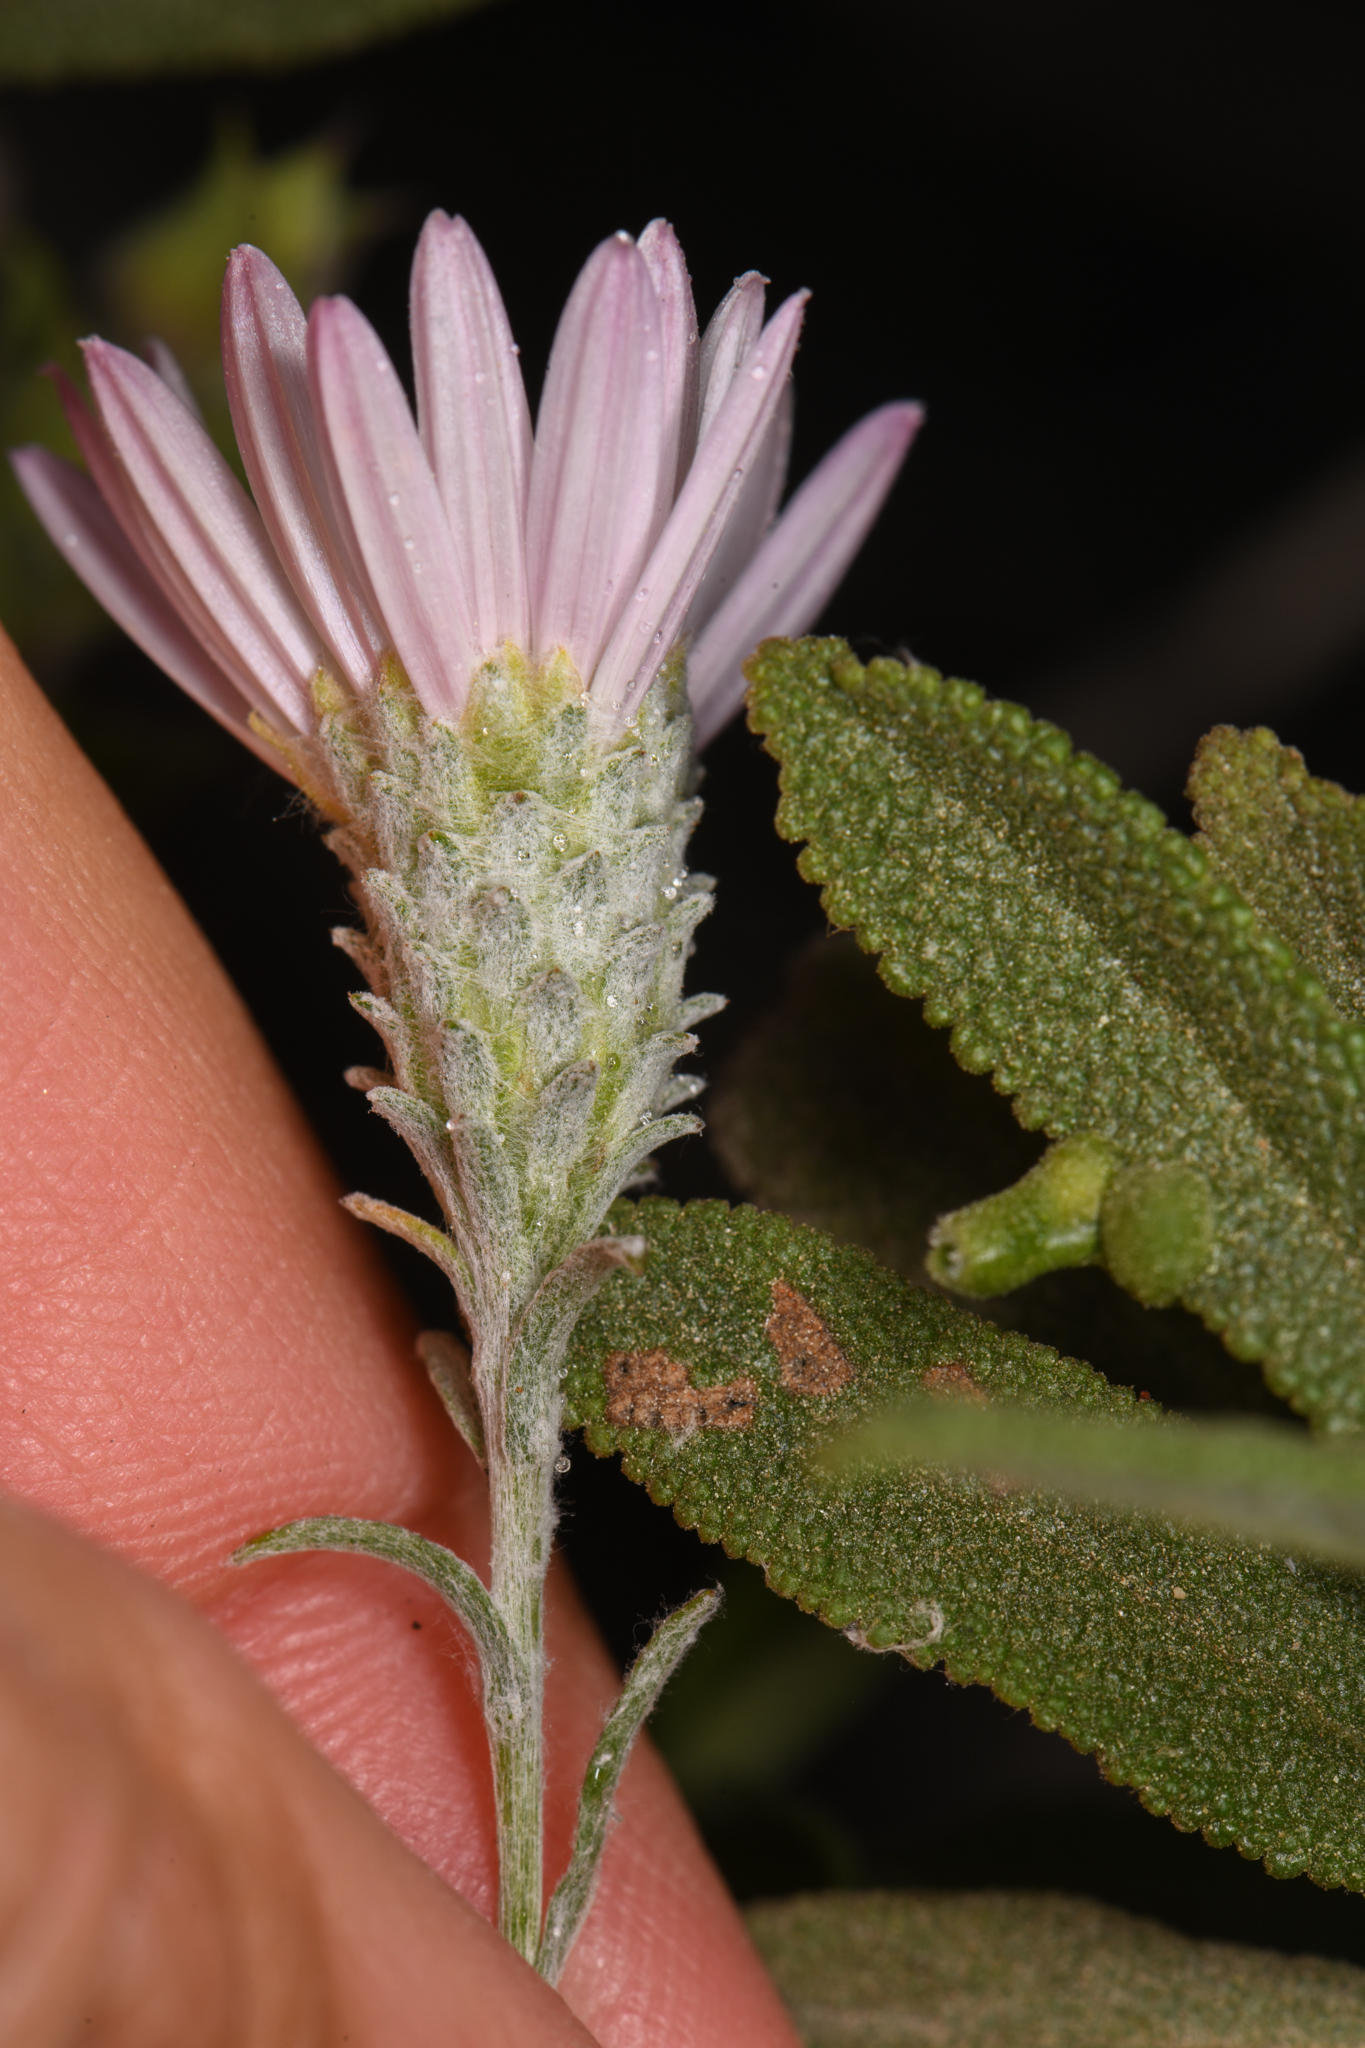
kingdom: Plantae
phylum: Tracheophyta
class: Magnoliopsida
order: Asterales
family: Asteraceae
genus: Corethrogyne
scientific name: Corethrogyne filaginifolia
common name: Sand-aster
